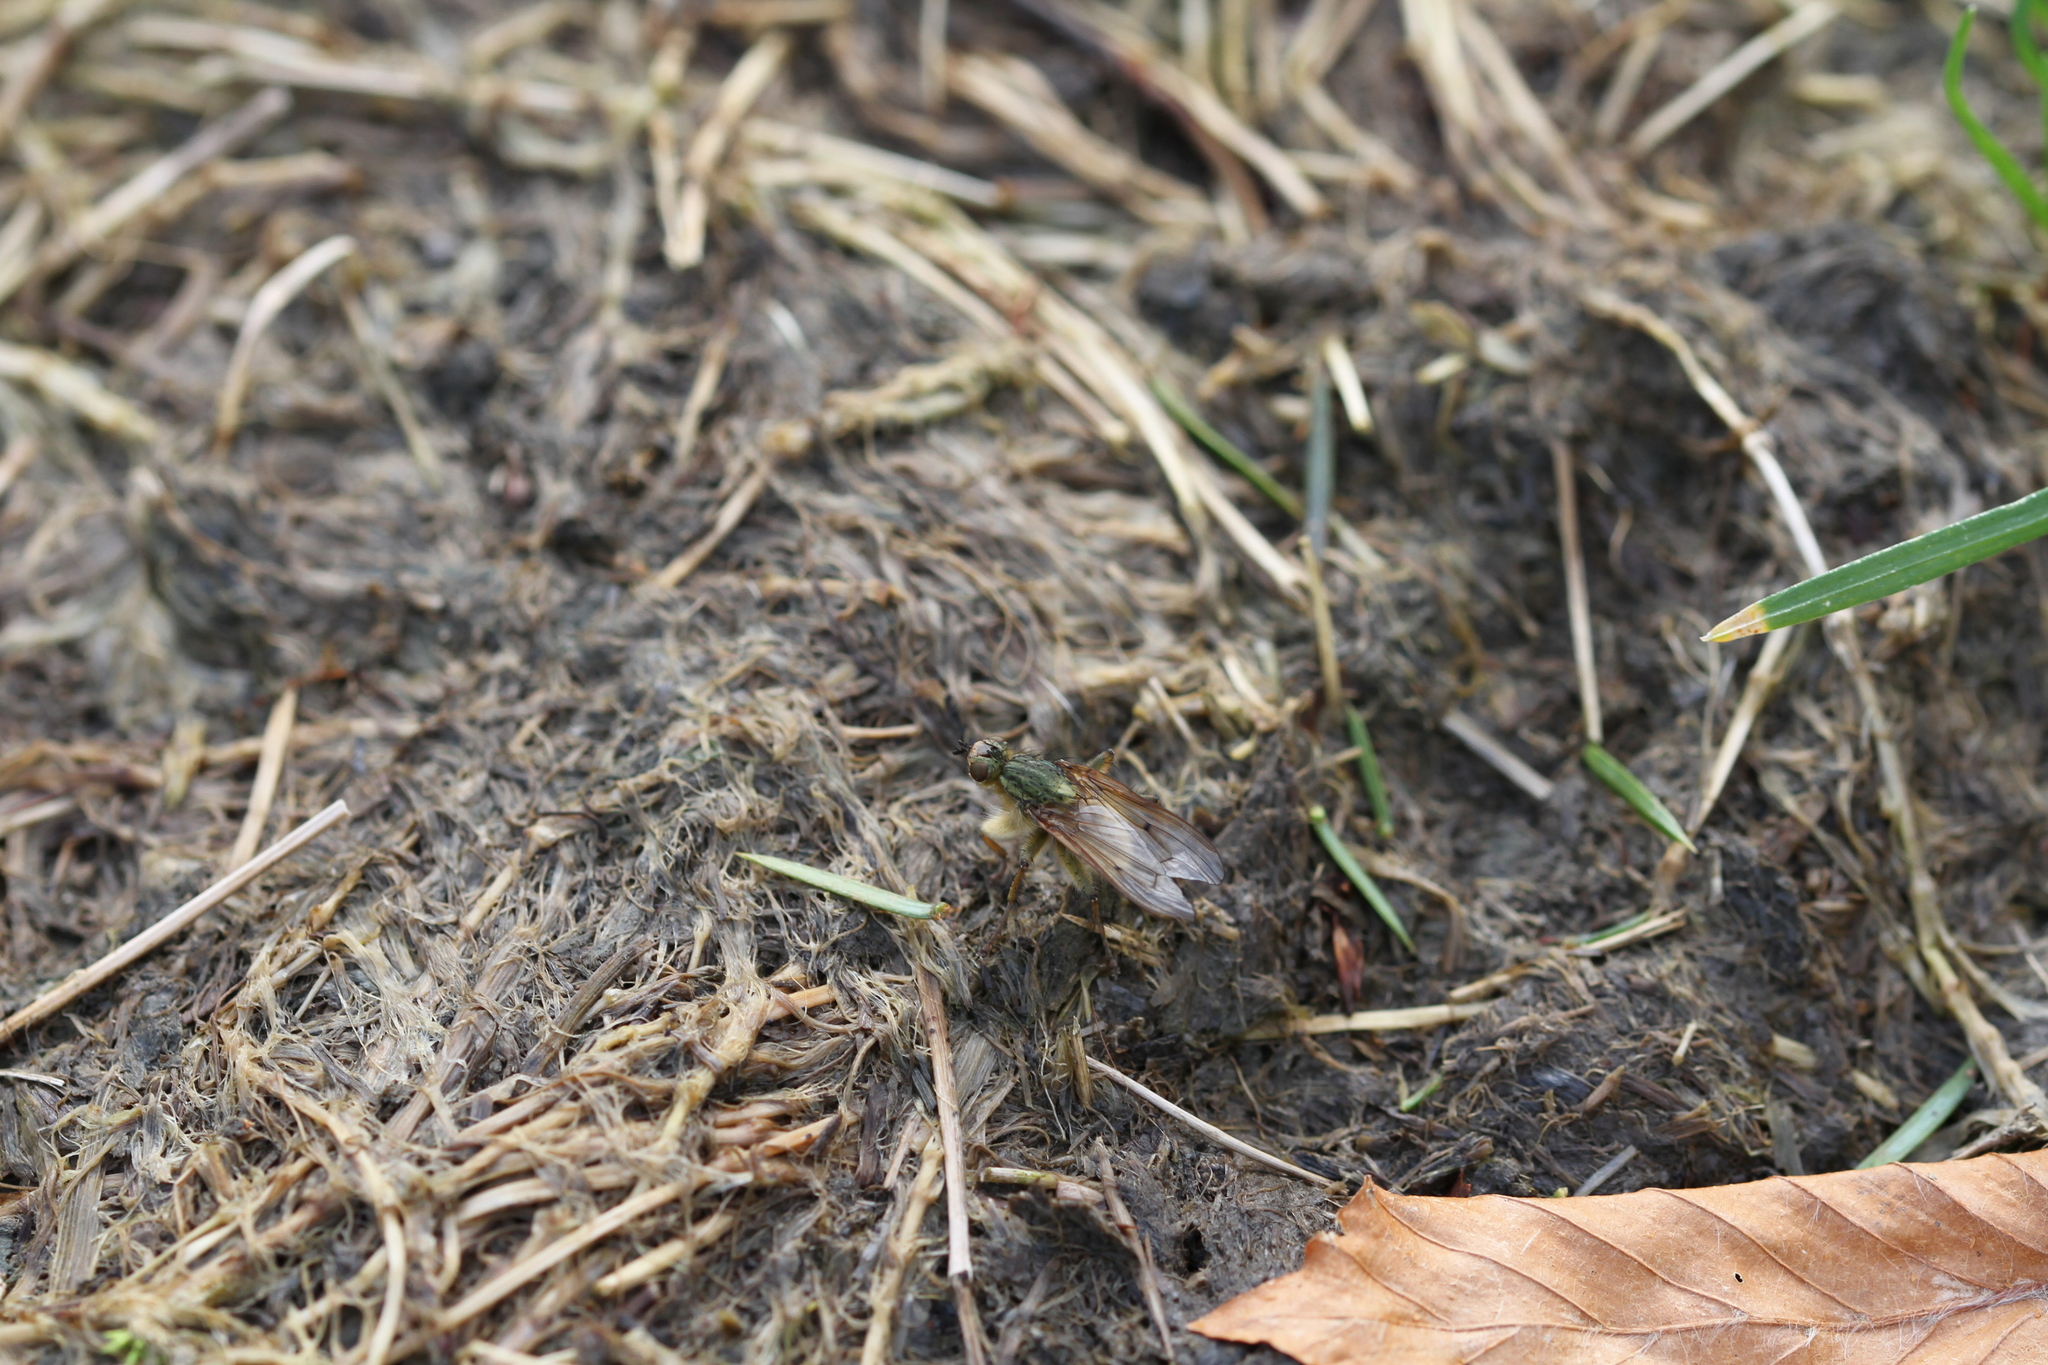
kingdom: Animalia
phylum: Arthropoda
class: Insecta
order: Diptera
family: Scathophagidae
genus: Scathophaga
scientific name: Scathophaga stercoraria
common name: Yellow dung fly
